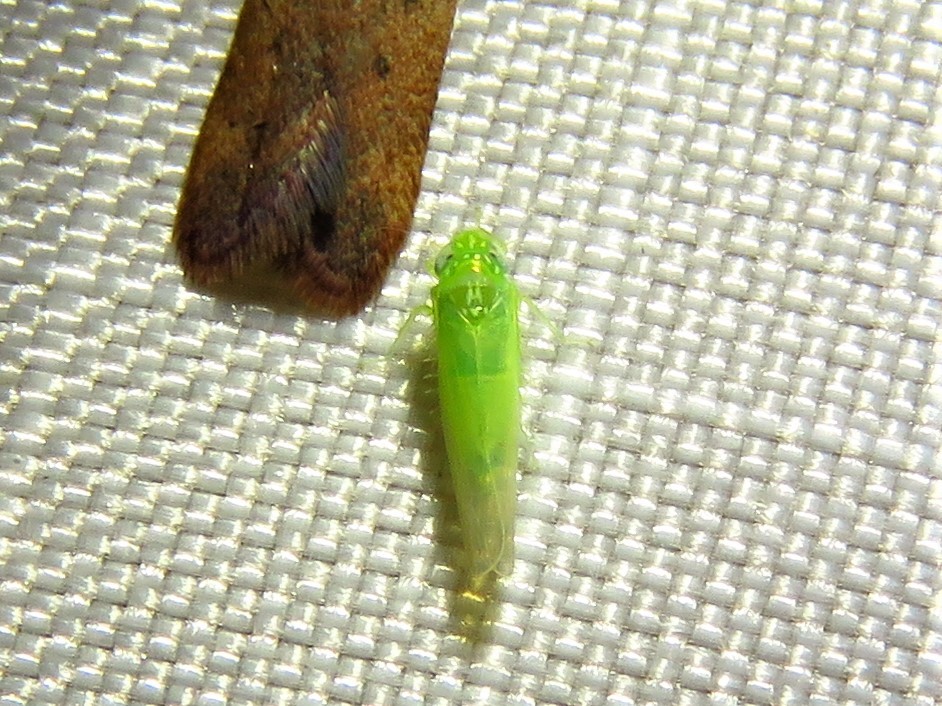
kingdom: Animalia
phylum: Arthropoda
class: Insecta
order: Hemiptera
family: Cicadellidae
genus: Empoasca
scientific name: Empoasca fabae
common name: Potato leafhopper
